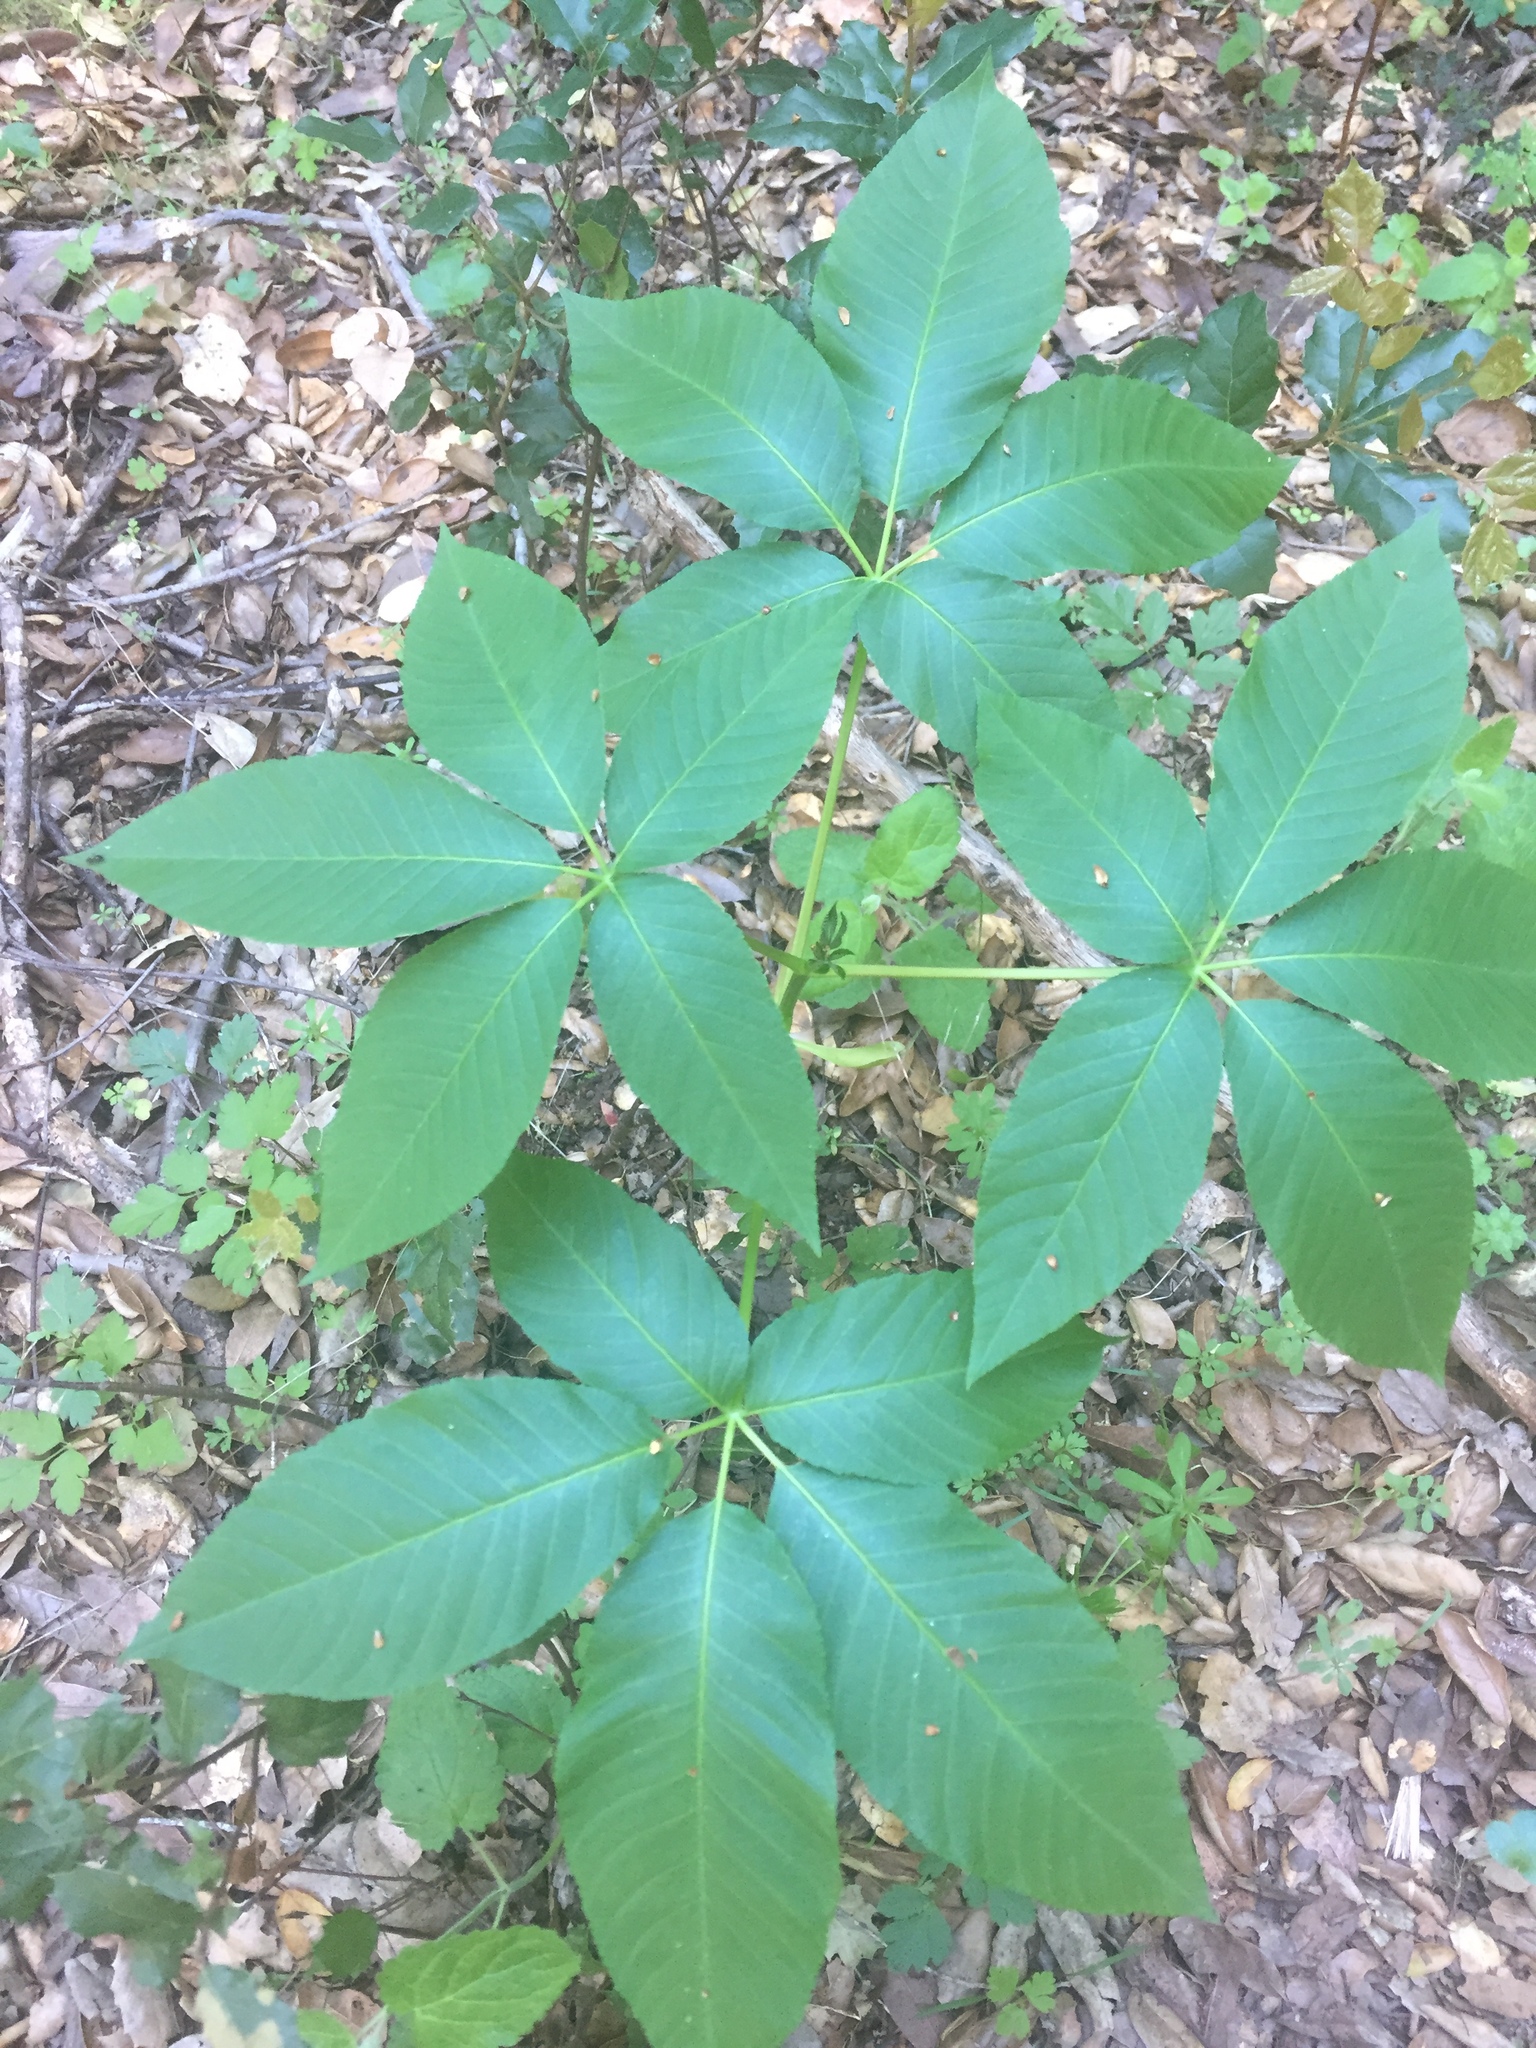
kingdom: Plantae
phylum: Tracheophyta
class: Magnoliopsida
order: Sapindales
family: Sapindaceae
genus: Aesculus
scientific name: Aesculus californica
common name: California buckeye
